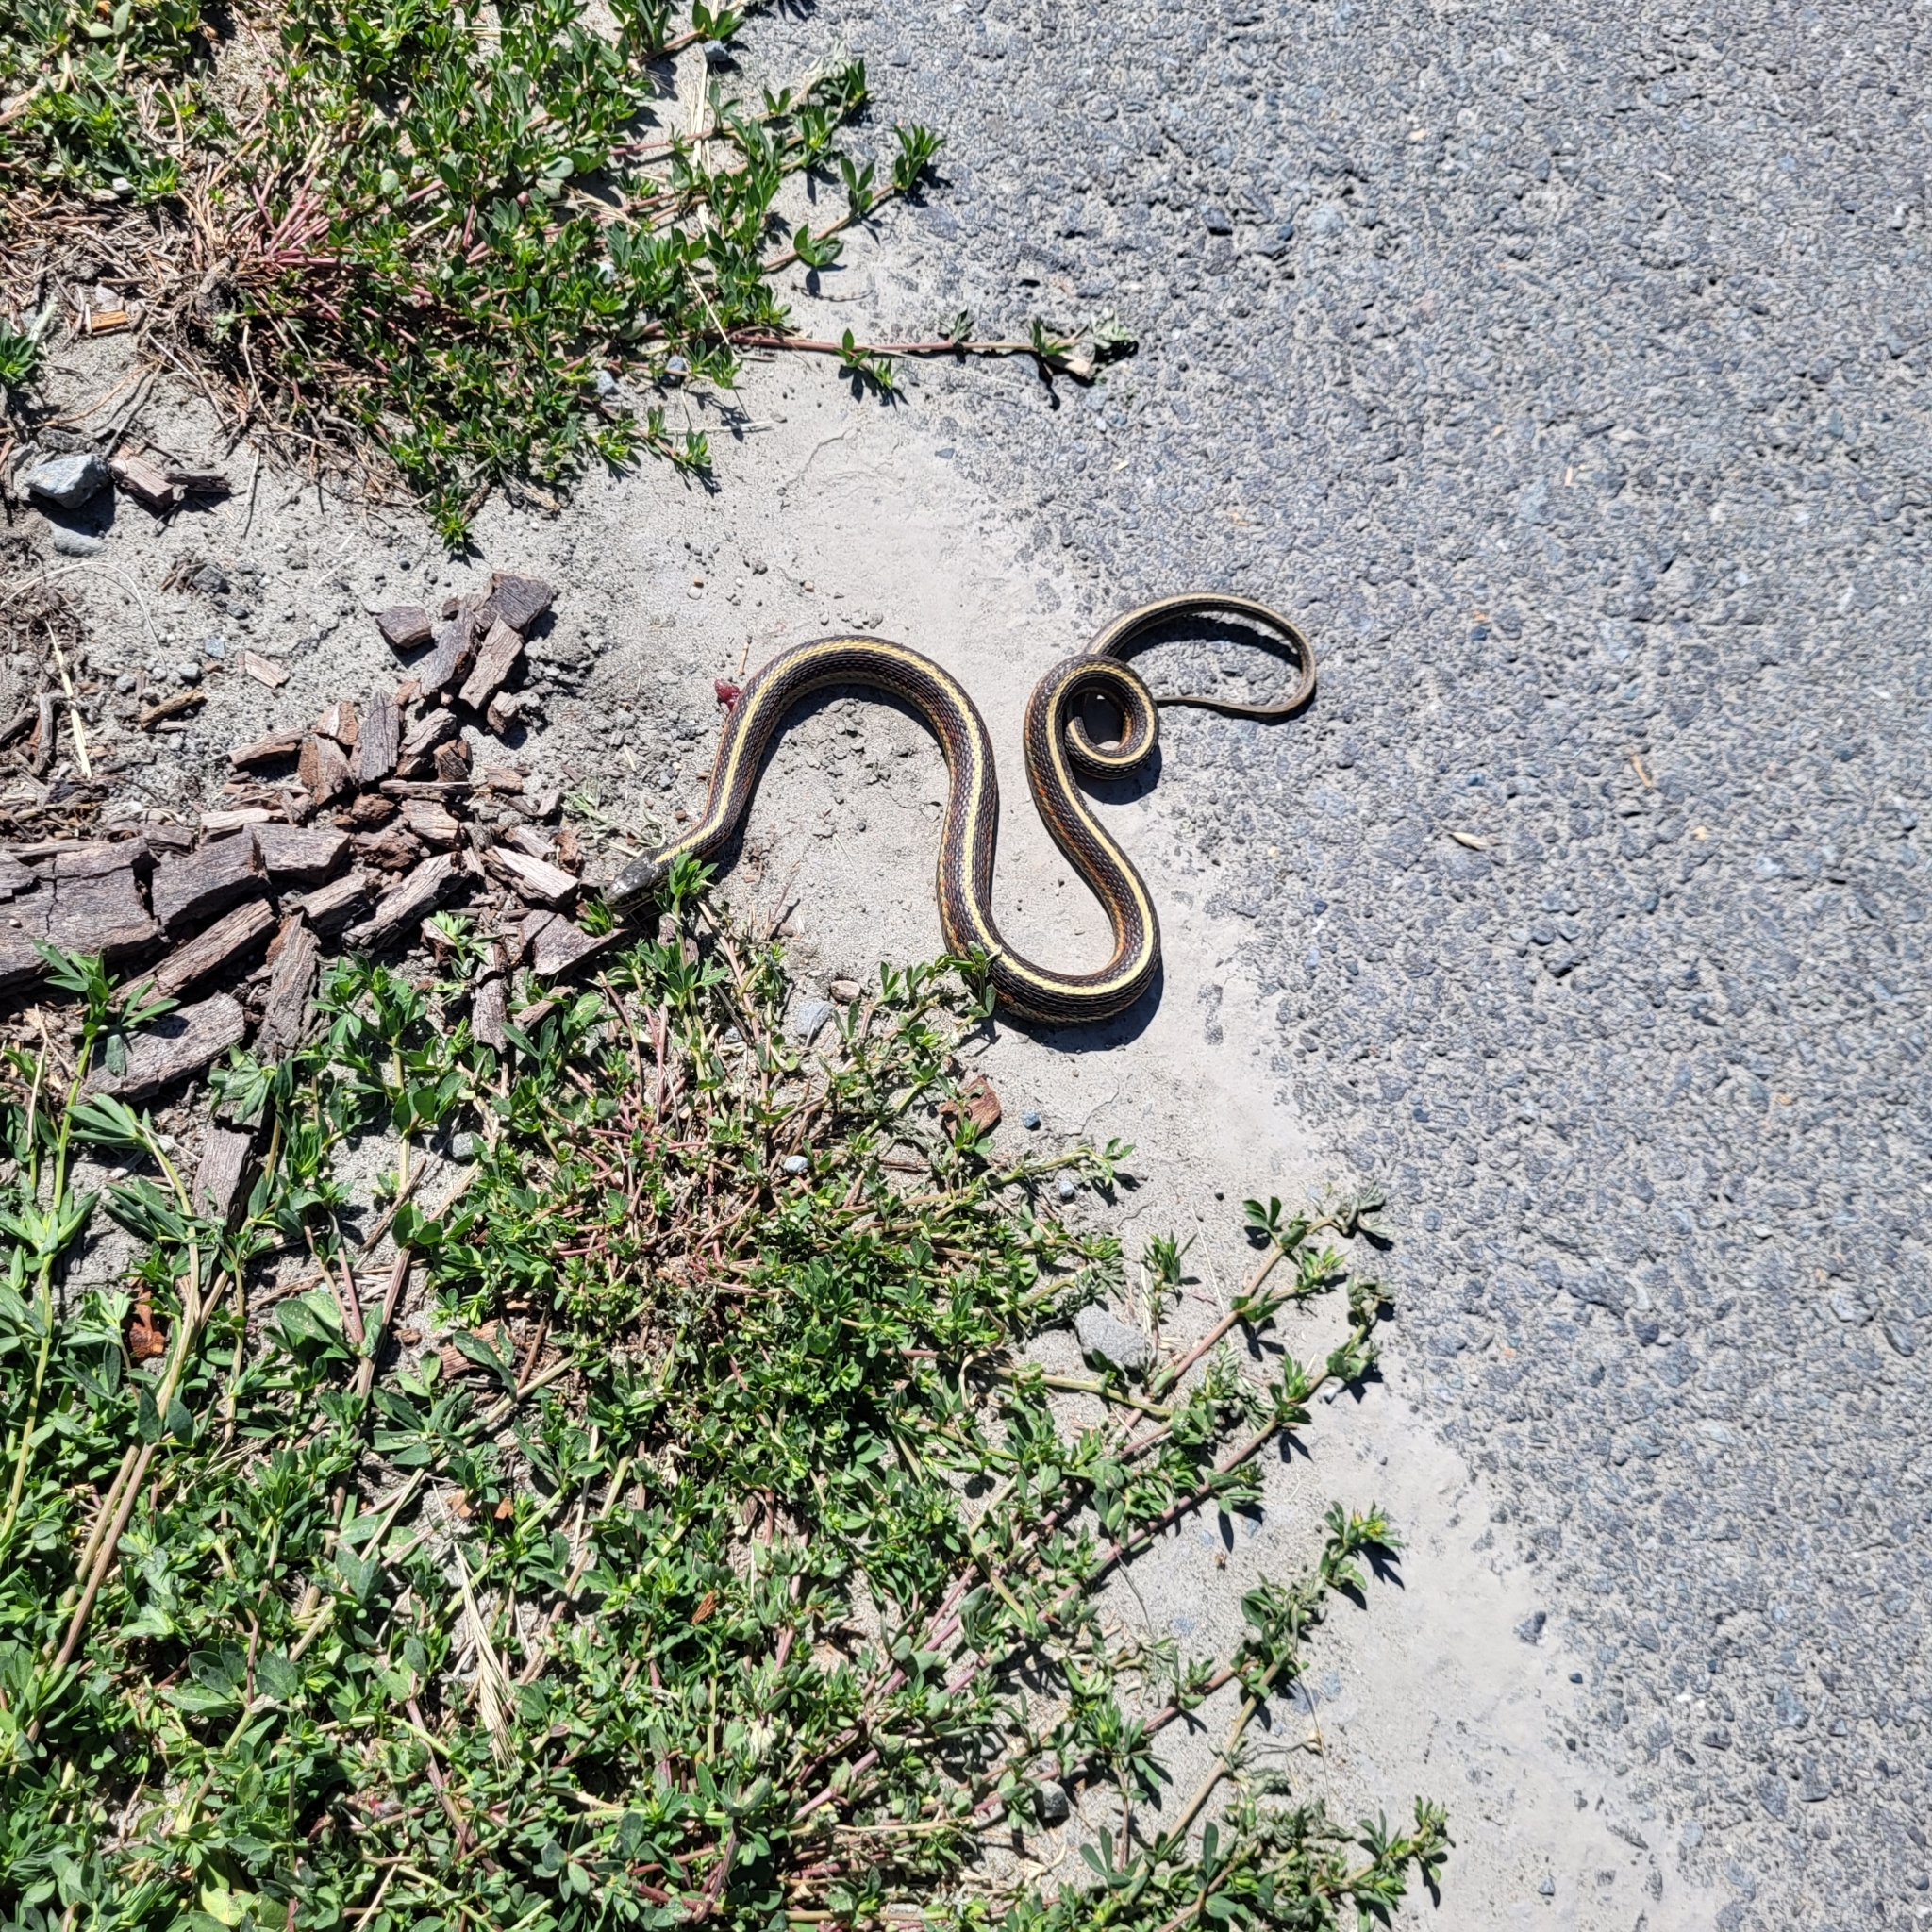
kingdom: Animalia
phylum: Chordata
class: Squamata
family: Colubridae
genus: Thamnophis
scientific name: Thamnophis elegans
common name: Western terrestrial garter snake
